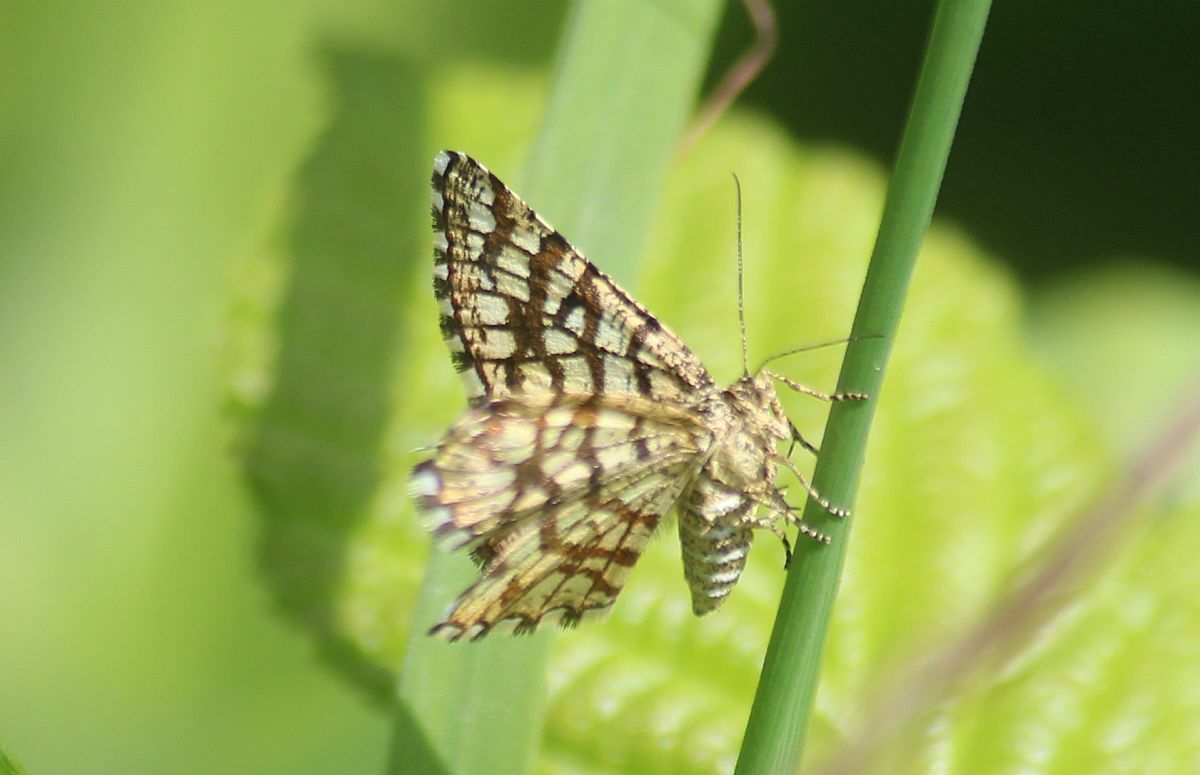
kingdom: Animalia
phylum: Arthropoda
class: Insecta
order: Lepidoptera
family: Geometridae
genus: Chiasmia
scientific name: Chiasmia clathrata
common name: Latticed heath
